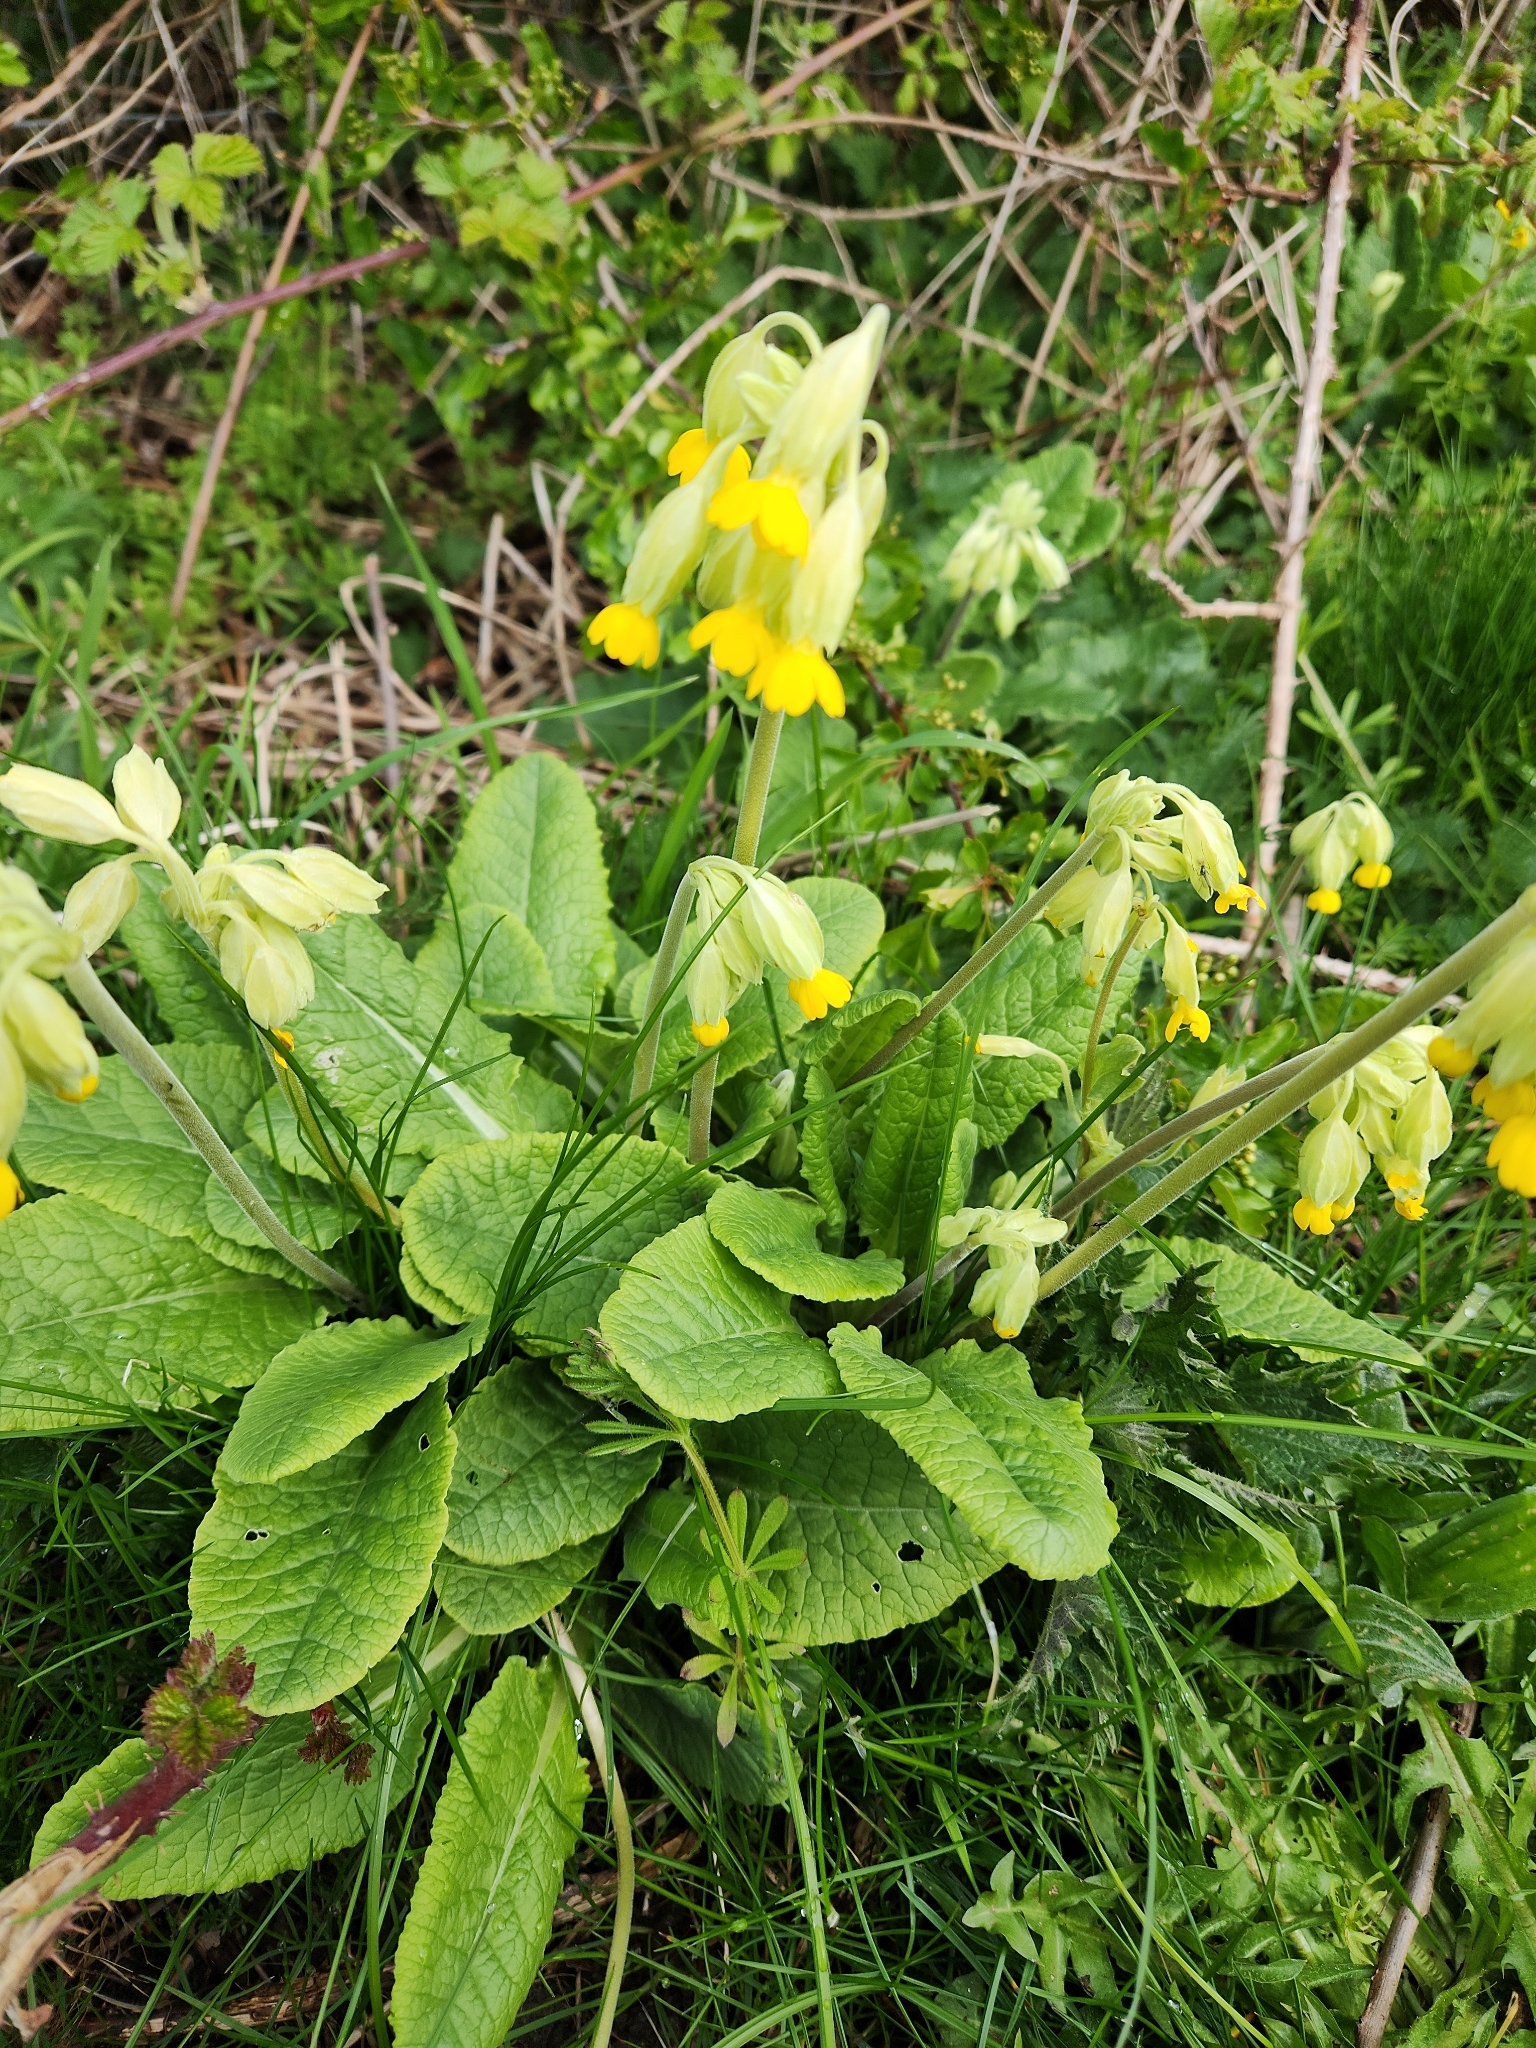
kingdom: Plantae
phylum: Tracheophyta
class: Magnoliopsida
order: Ericales
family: Primulaceae
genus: Primula
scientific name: Primula veris
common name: Cowslip
